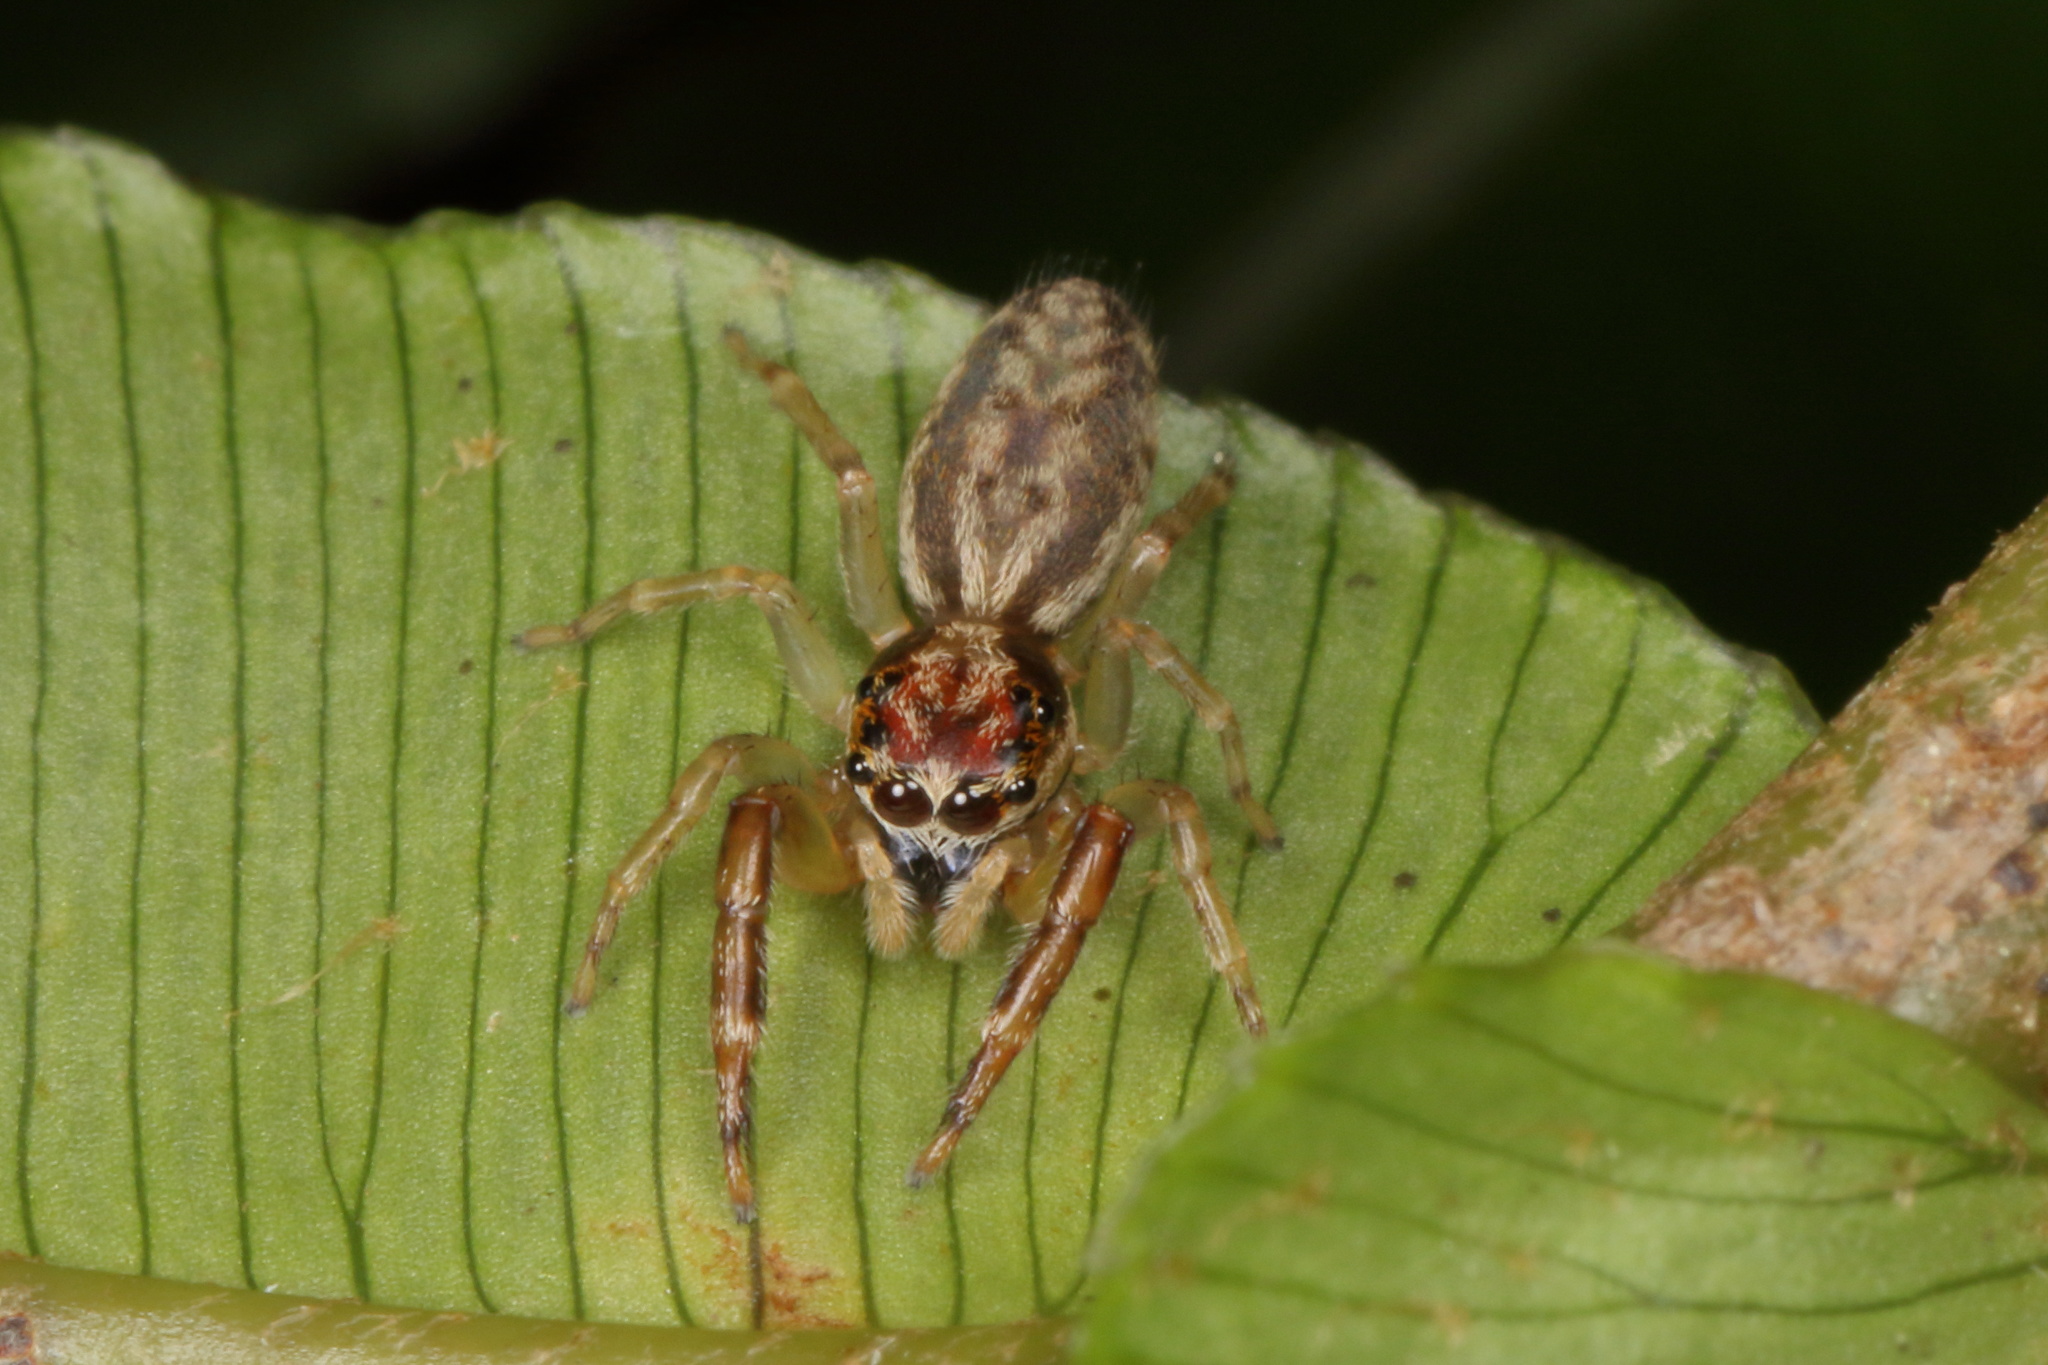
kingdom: Animalia
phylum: Arthropoda
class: Arachnida
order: Araneae
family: Salticidae
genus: Trite
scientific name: Trite mustilina
